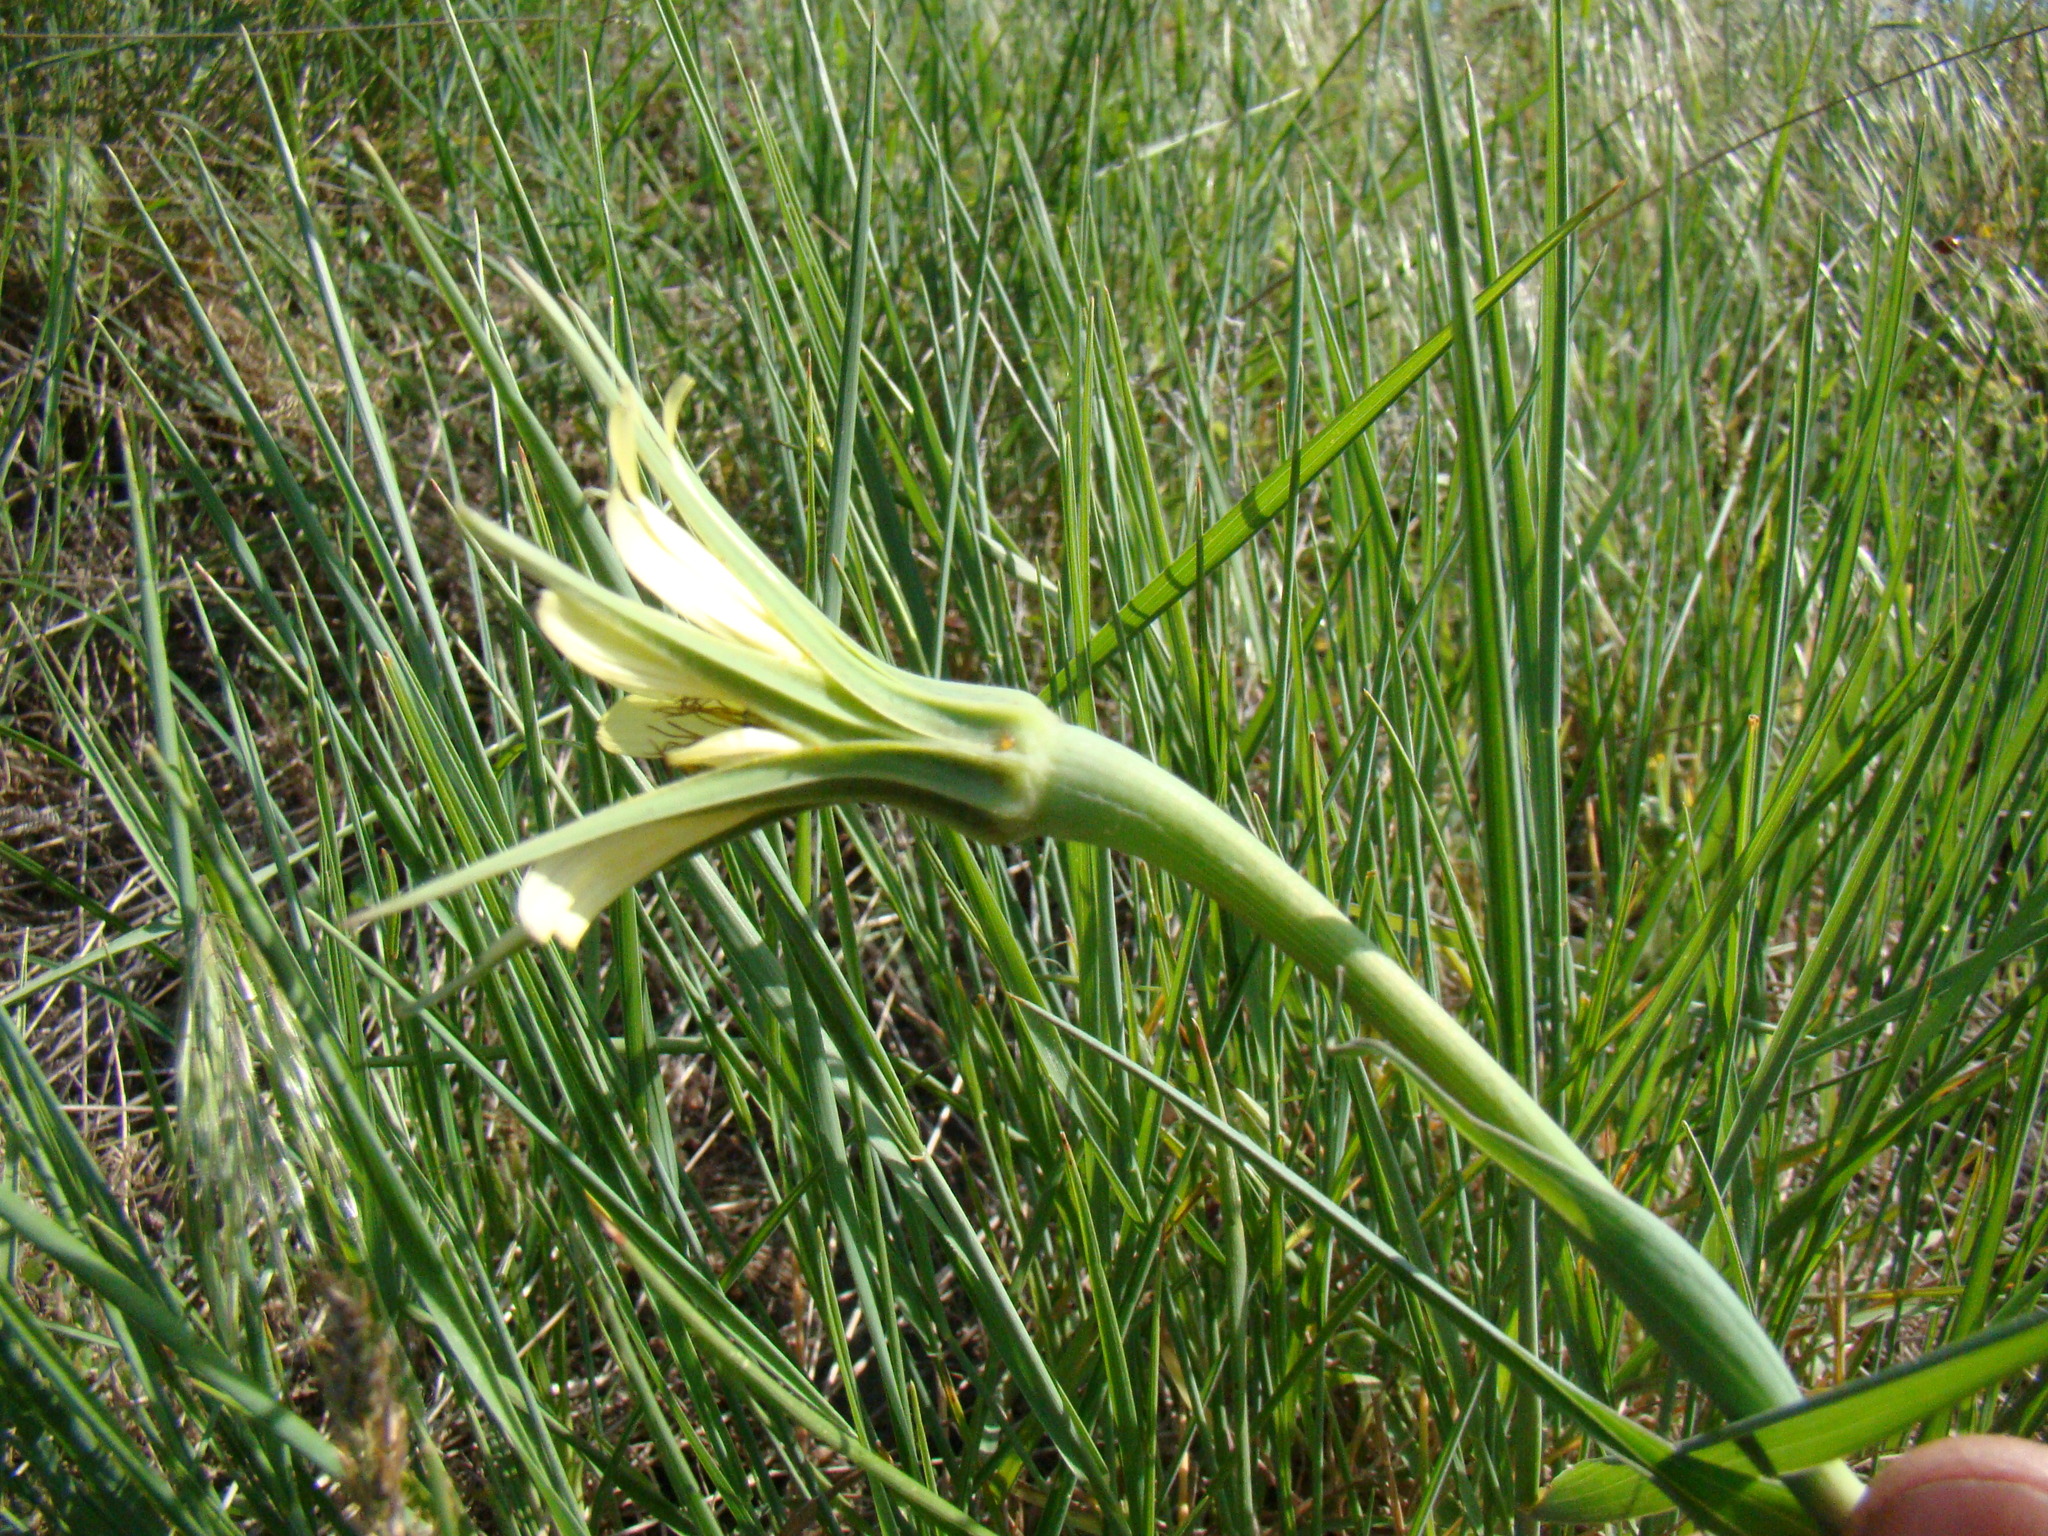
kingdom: Plantae
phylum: Tracheophyta
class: Magnoliopsida
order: Asterales
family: Asteraceae
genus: Tragopogon
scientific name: Tragopogon dubius
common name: Yellow salsify
